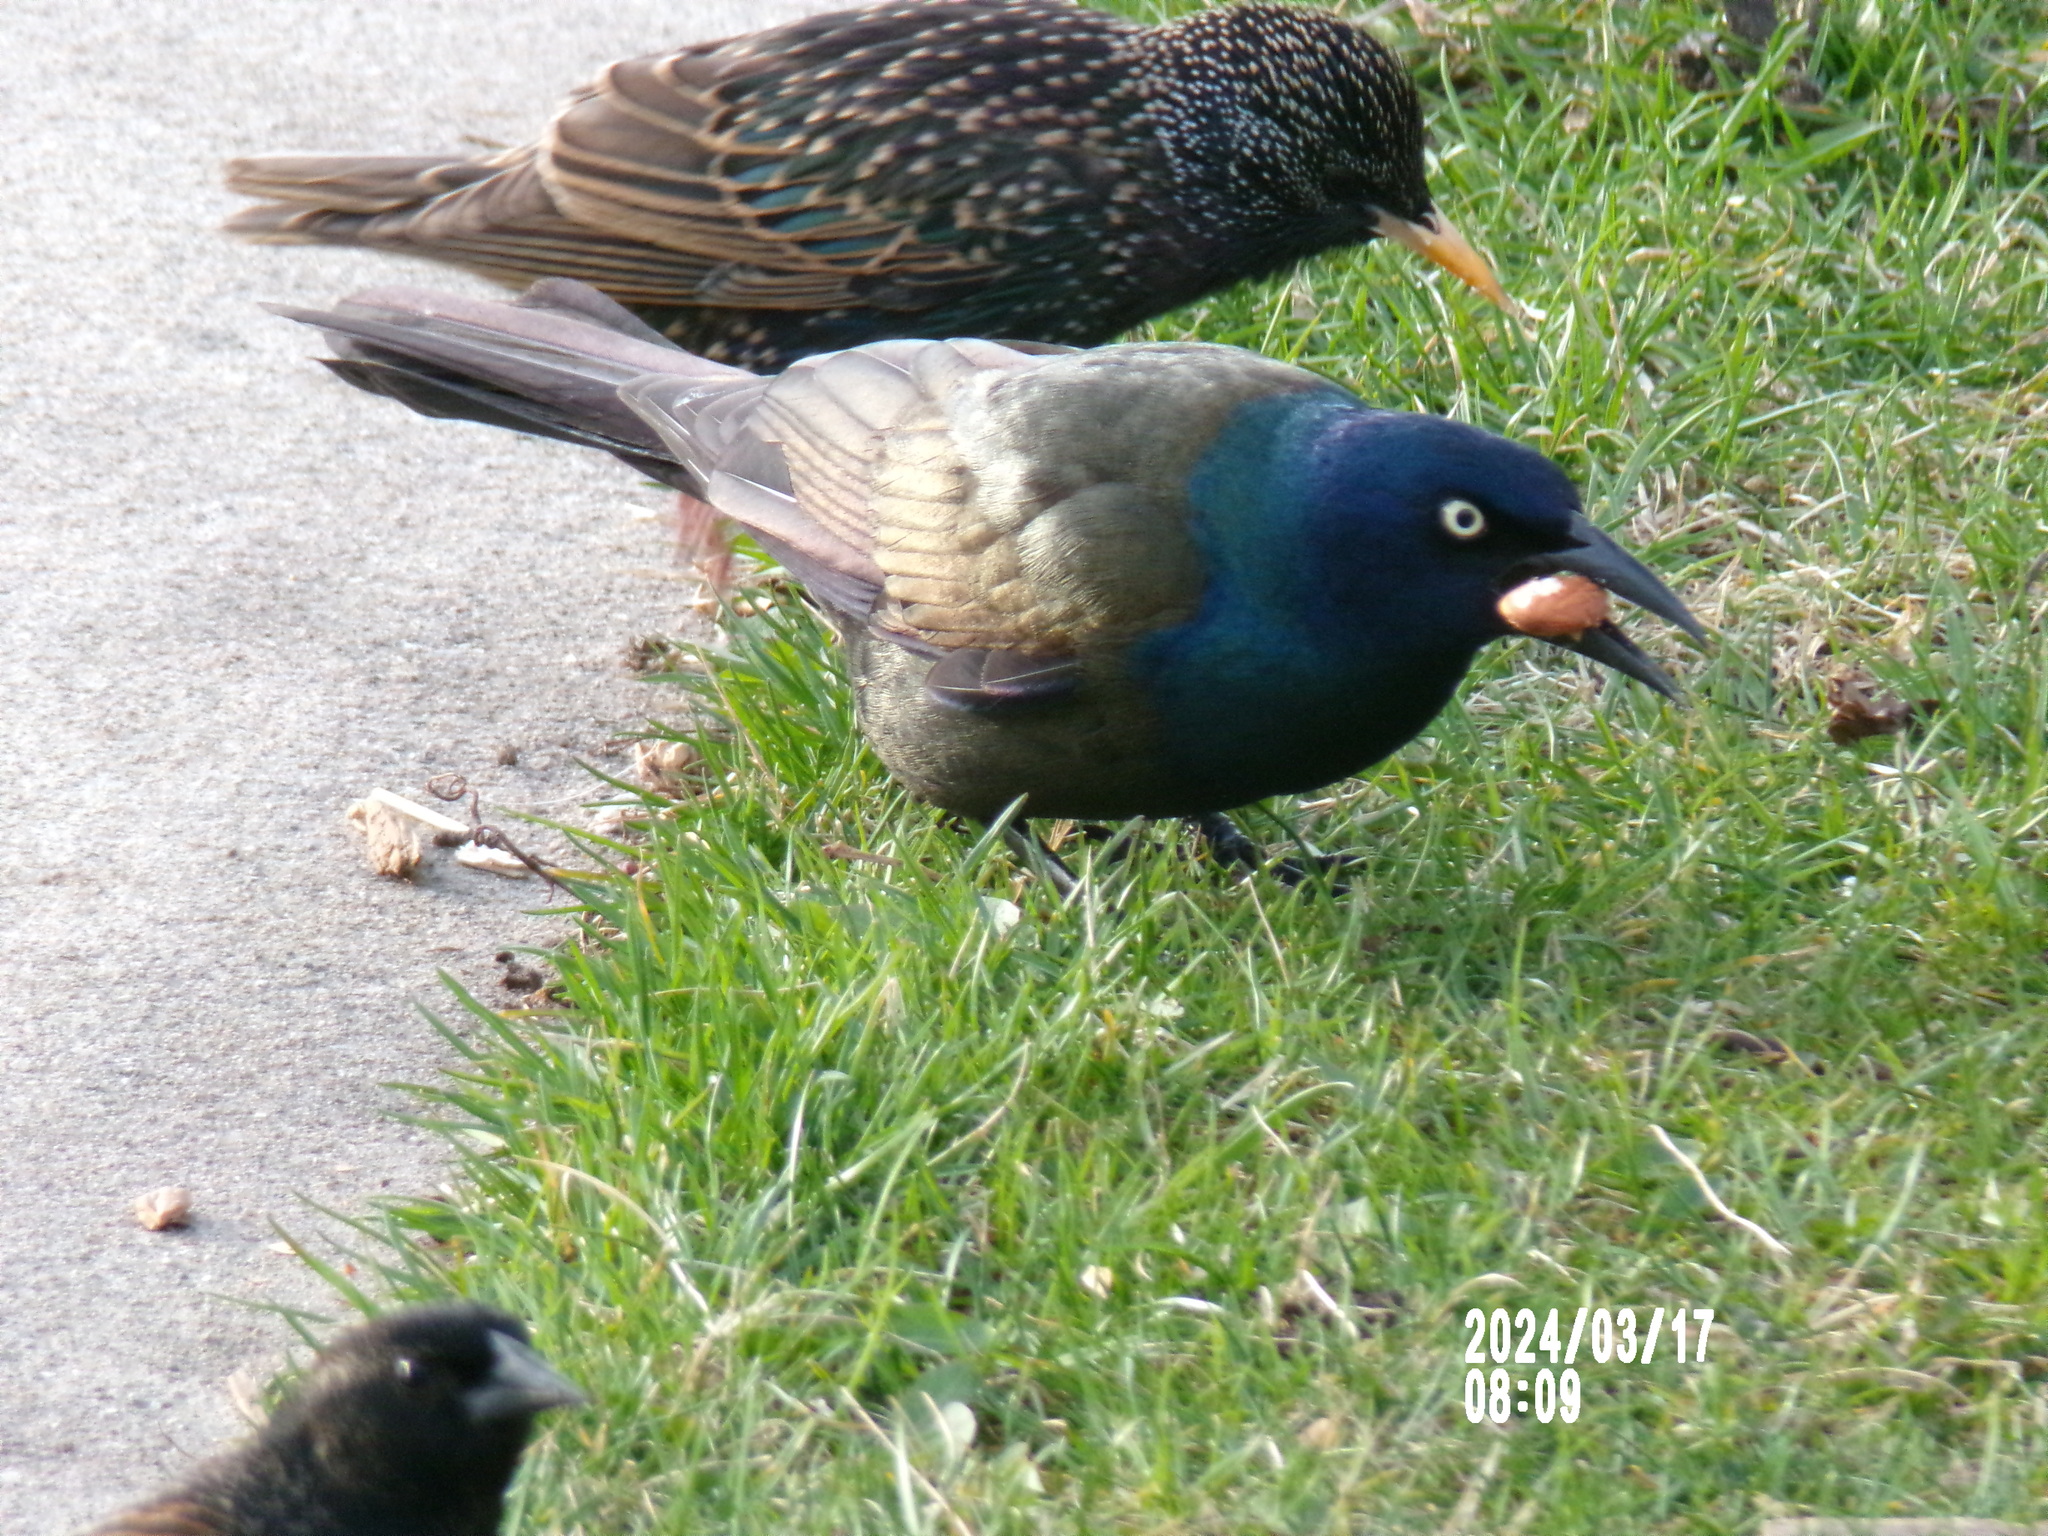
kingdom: Animalia
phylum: Chordata
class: Aves
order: Passeriformes
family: Icteridae
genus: Quiscalus
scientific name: Quiscalus quiscula
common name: Common grackle
